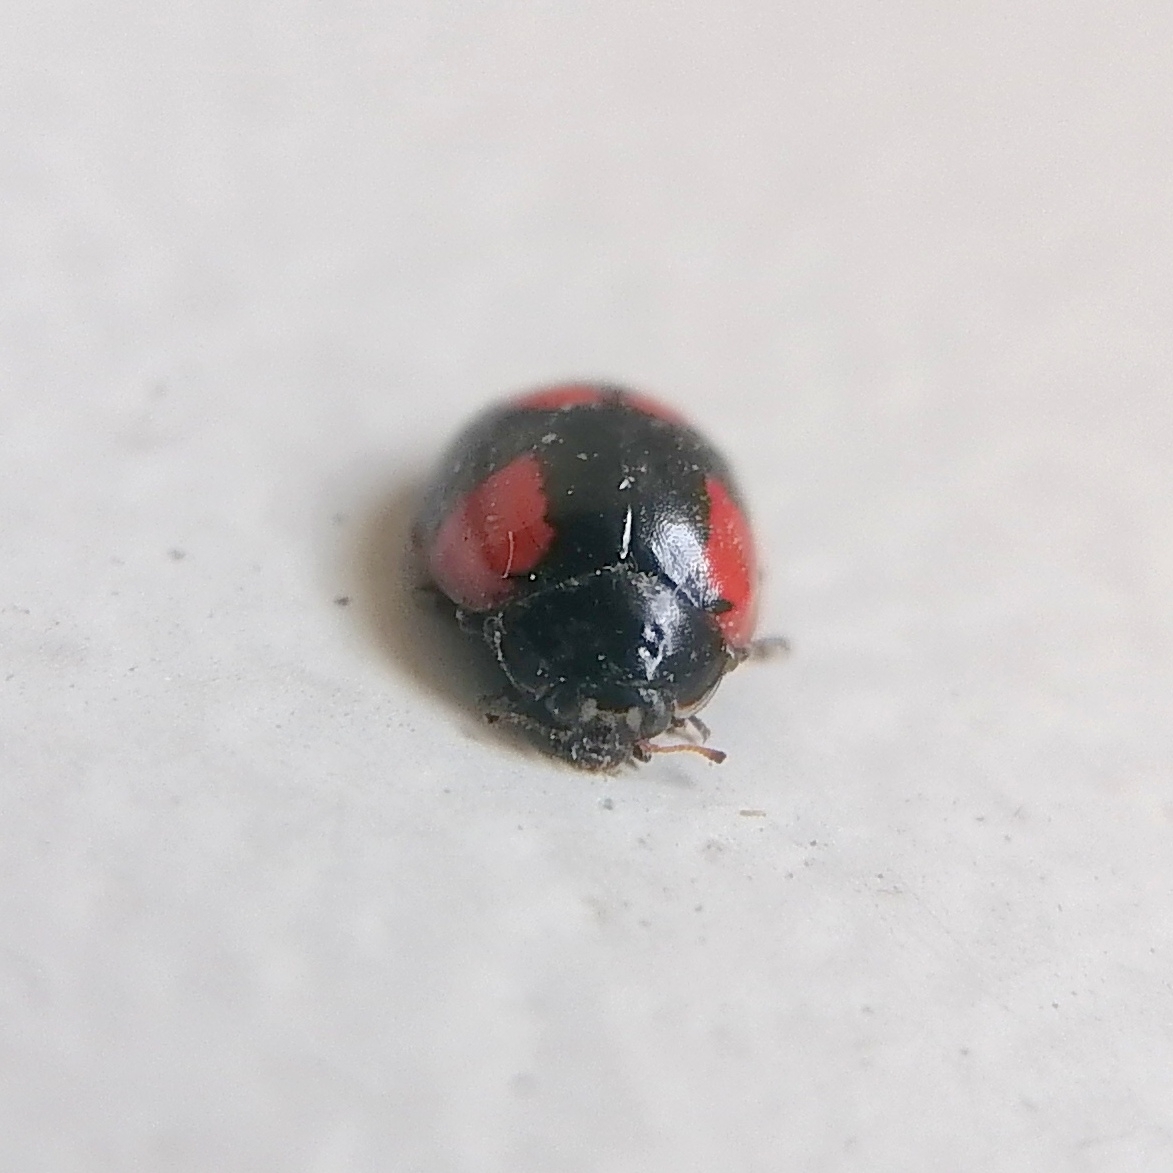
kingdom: Animalia
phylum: Arthropoda
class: Insecta
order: Coleoptera
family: Coccinellidae
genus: Adalia
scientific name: Adalia bipunctata
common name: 2-spot ladybird
